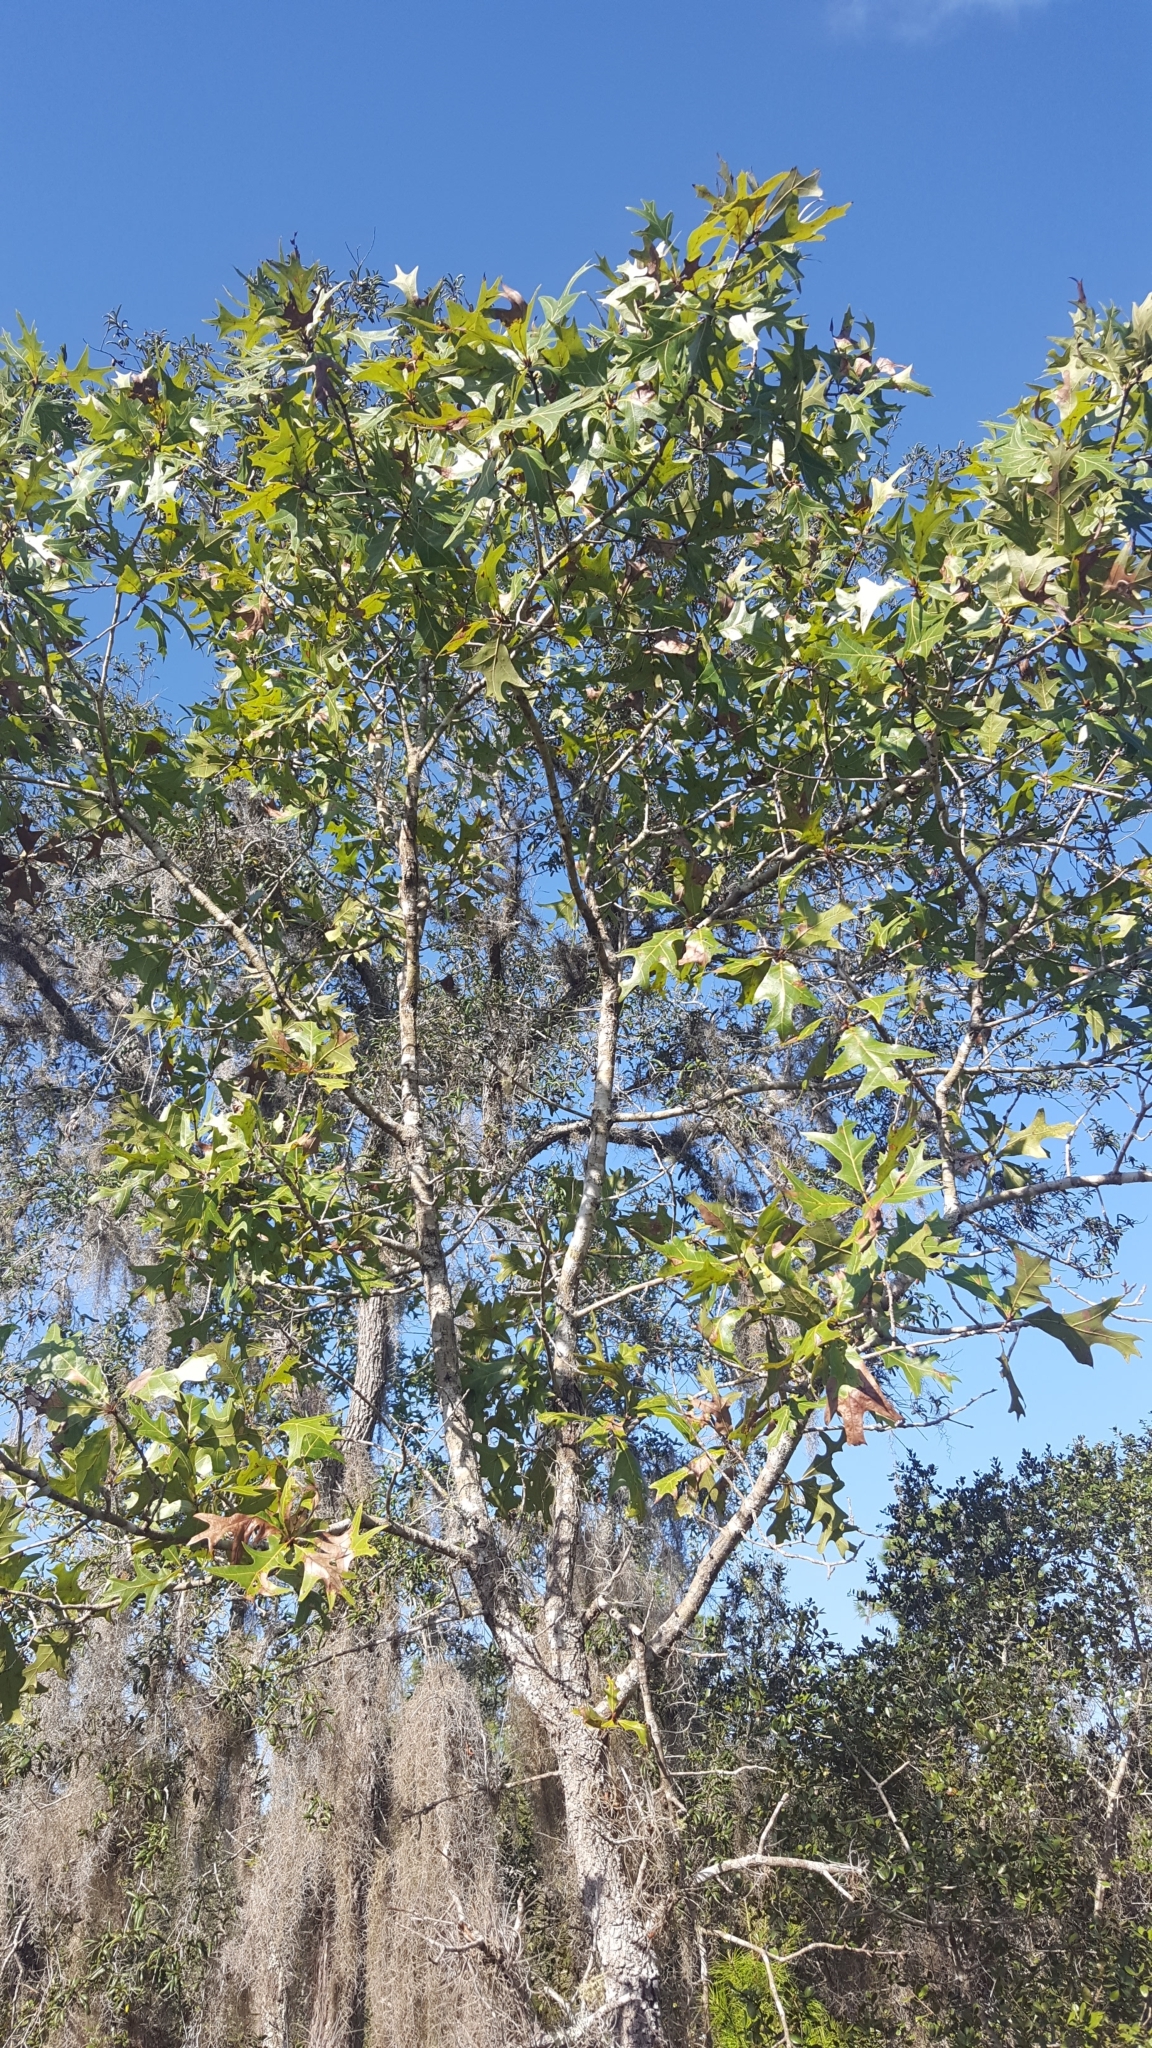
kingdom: Plantae
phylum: Tracheophyta
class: Magnoliopsida
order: Fagales
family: Fagaceae
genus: Quercus
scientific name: Quercus laevis
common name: Turkey oak
